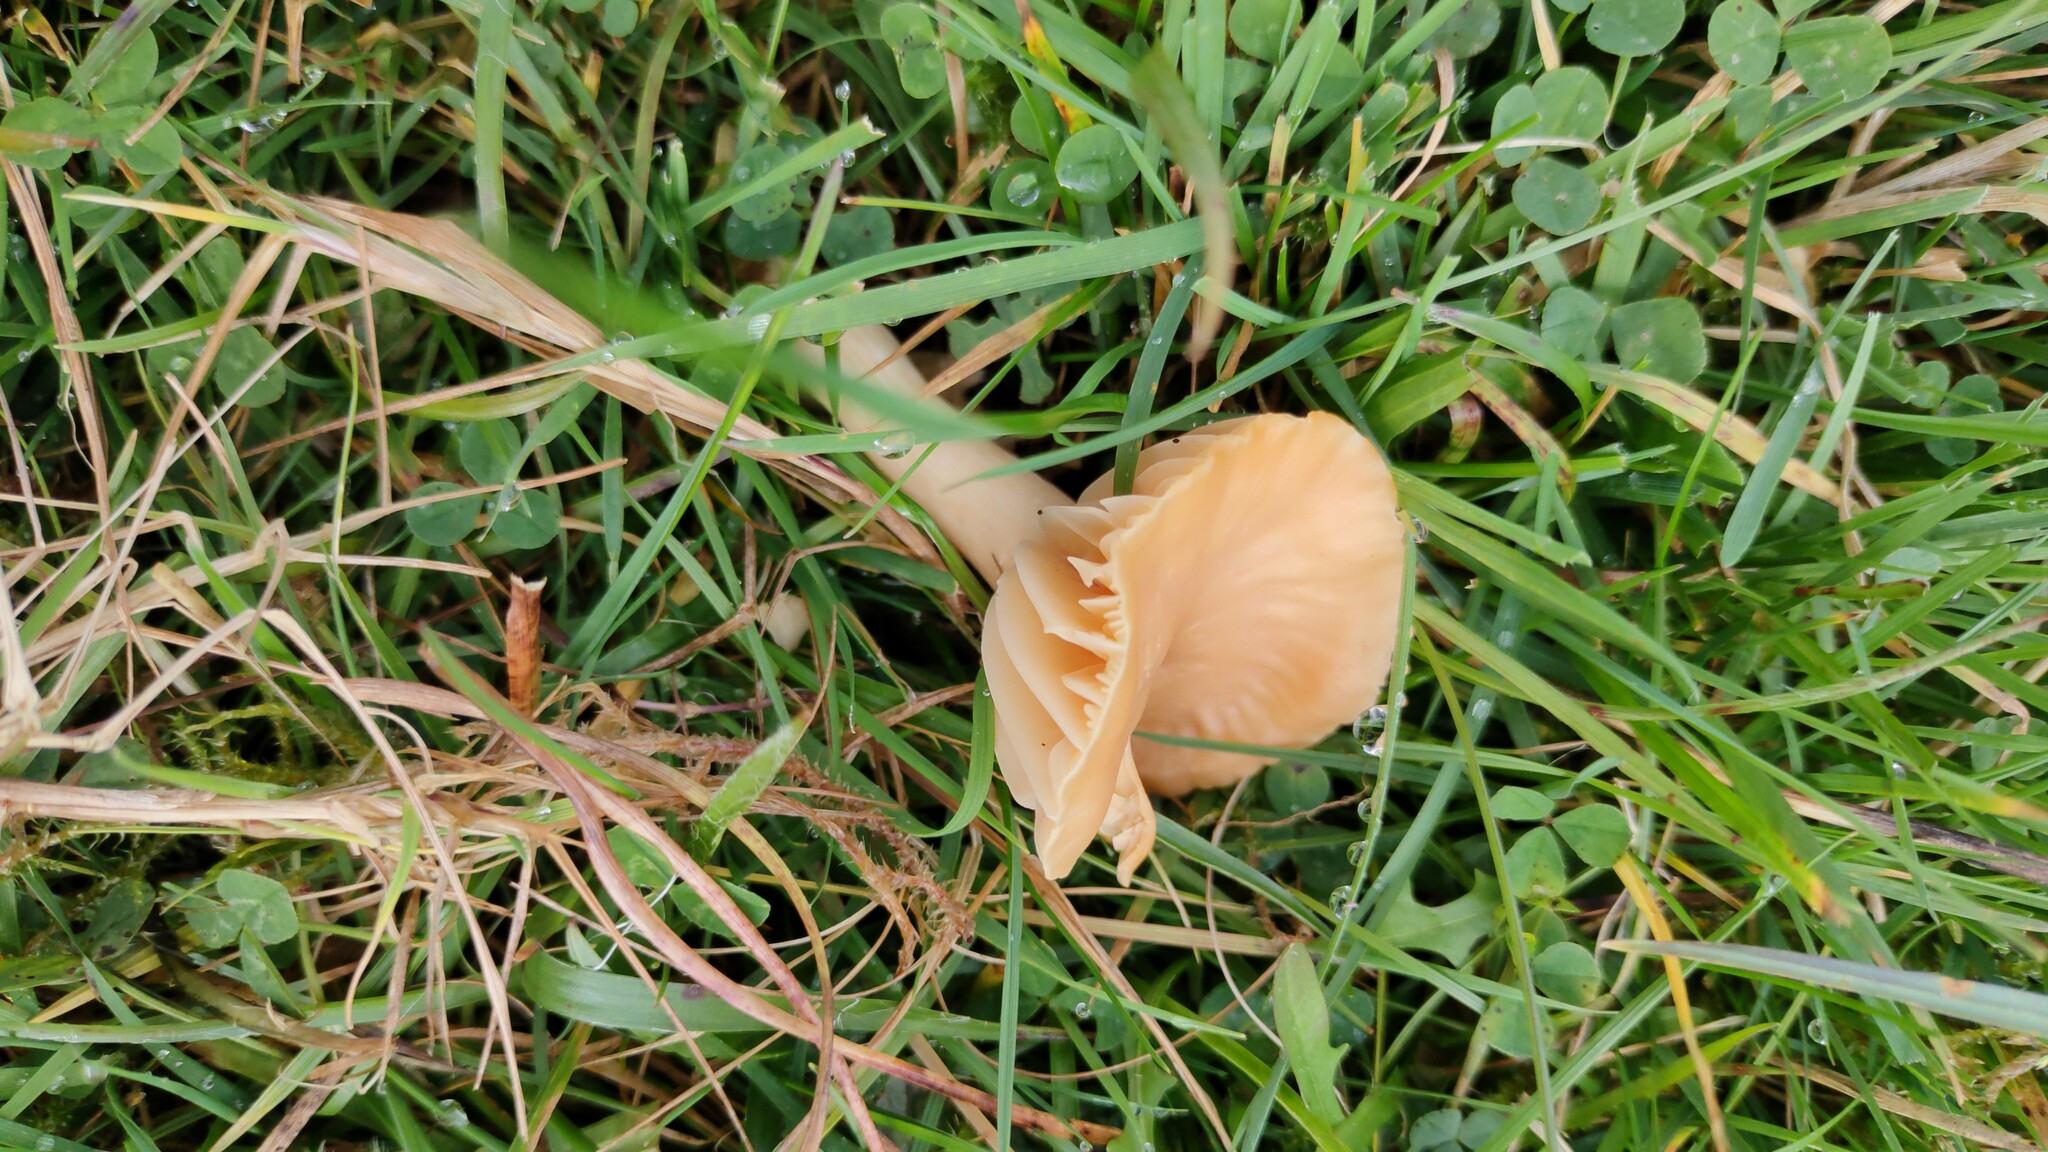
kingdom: Fungi
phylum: Basidiomycota
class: Agaricomycetes
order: Agaricales
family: Hygrophoraceae
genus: Cuphophyllus
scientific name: Cuphophyllus pratensis
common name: Meadow waxcap
